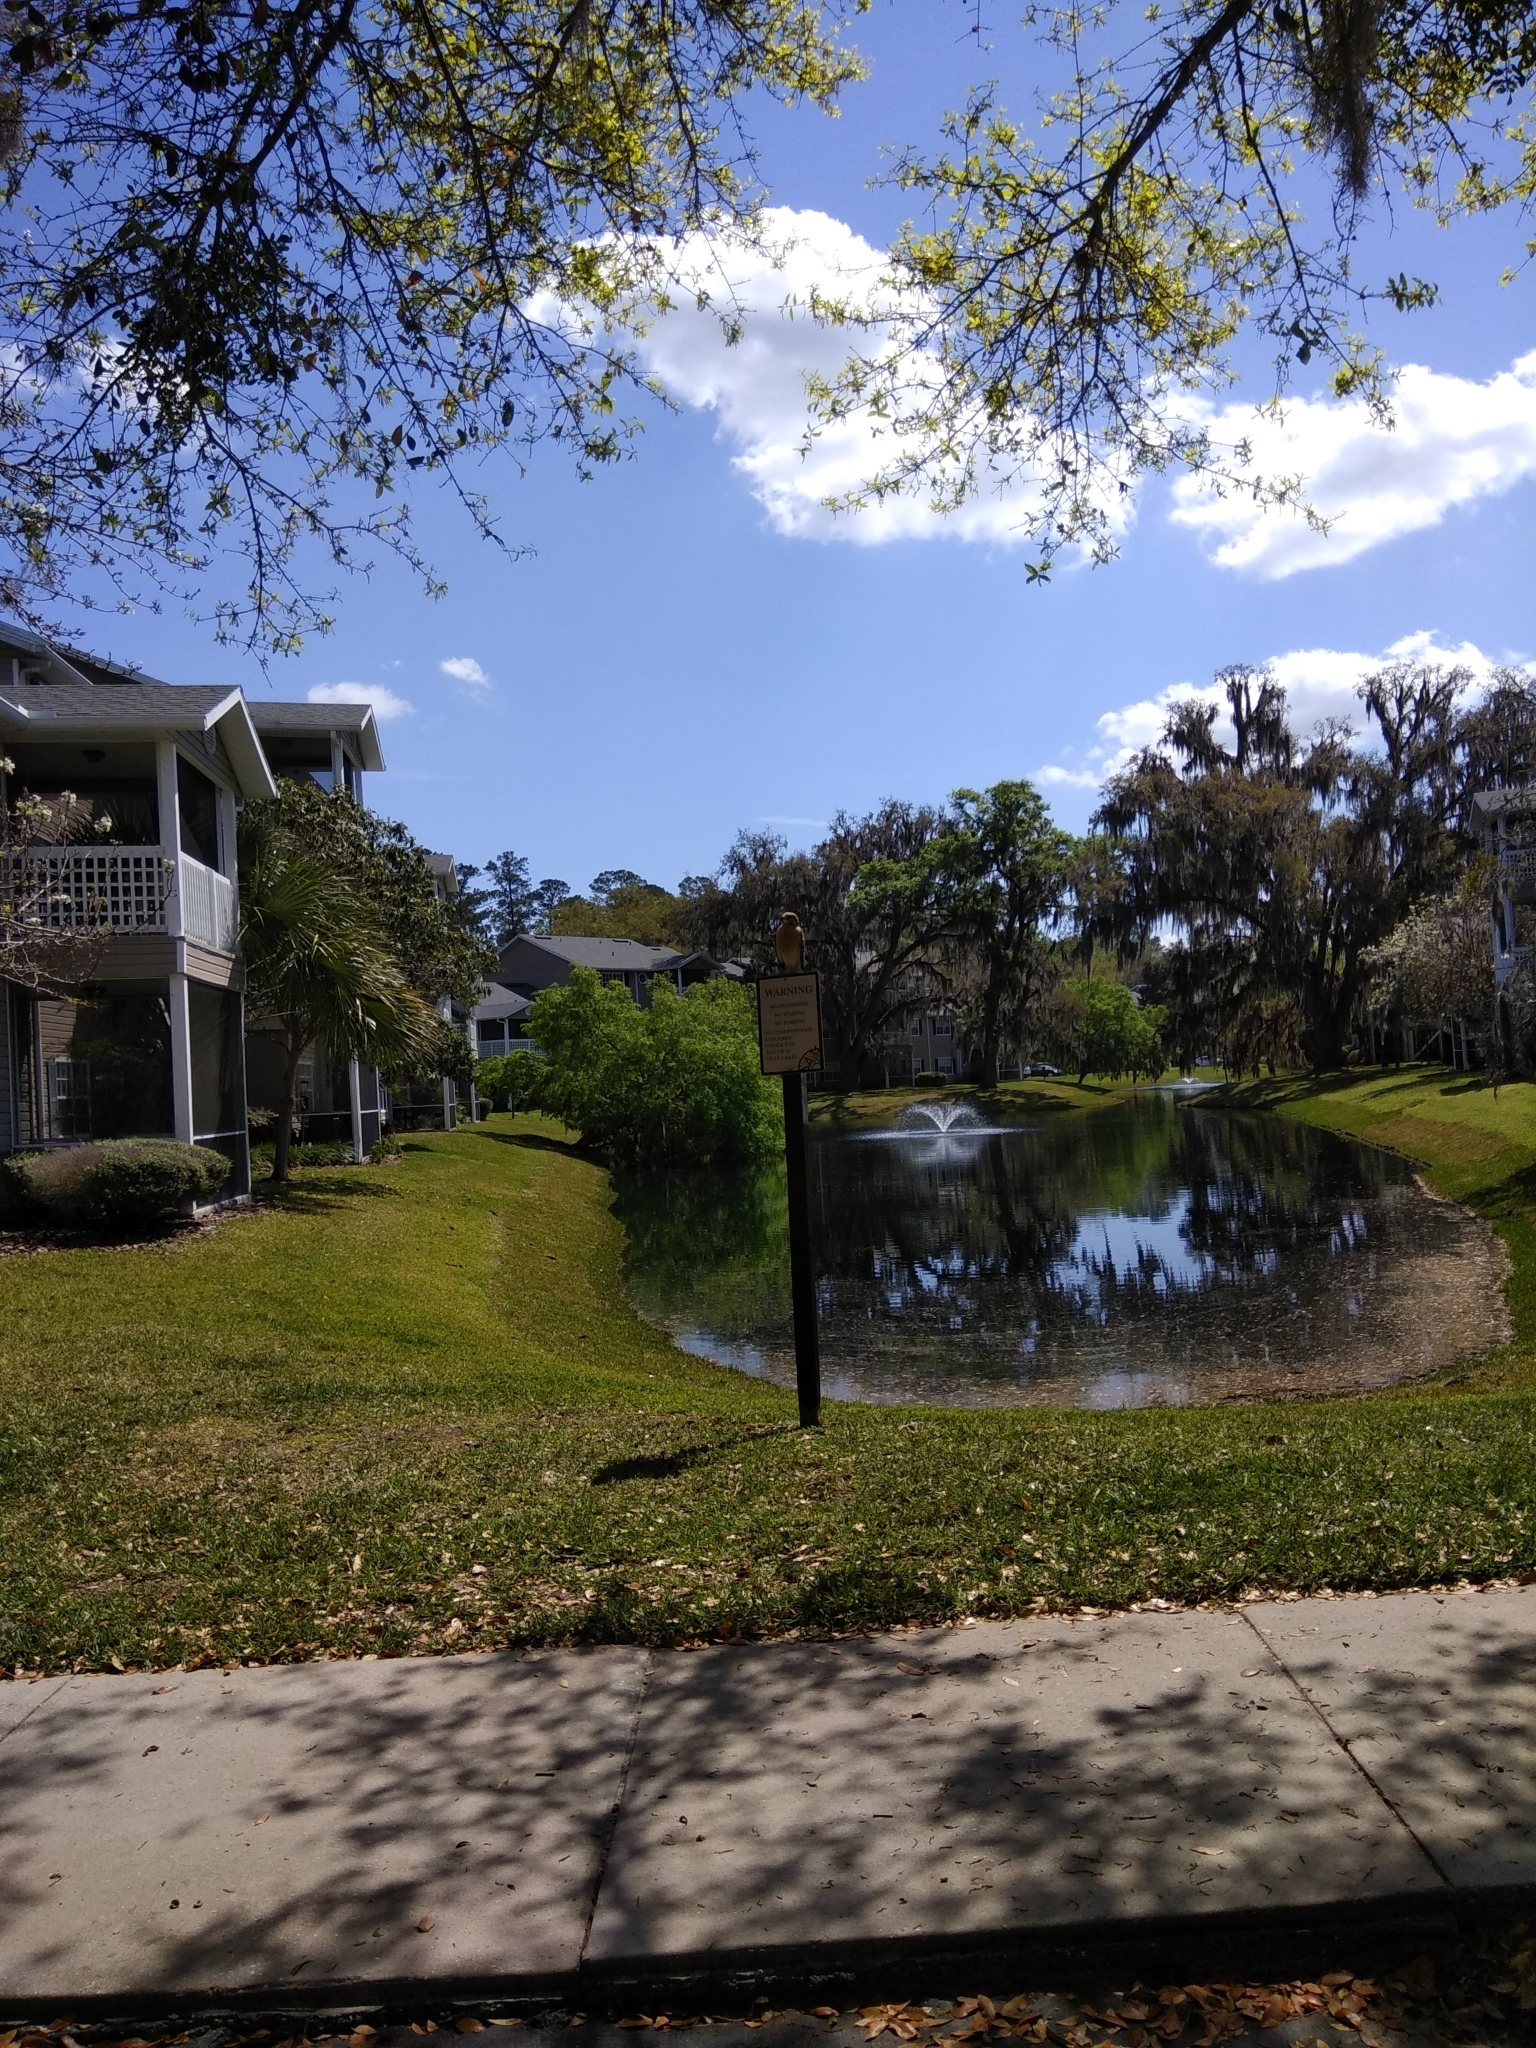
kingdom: Animalia
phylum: Chordata
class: Aves
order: Accipitriformes
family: Accipitridae
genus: Buteo
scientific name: Buteo lineatus
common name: Red-shouldered hawk
